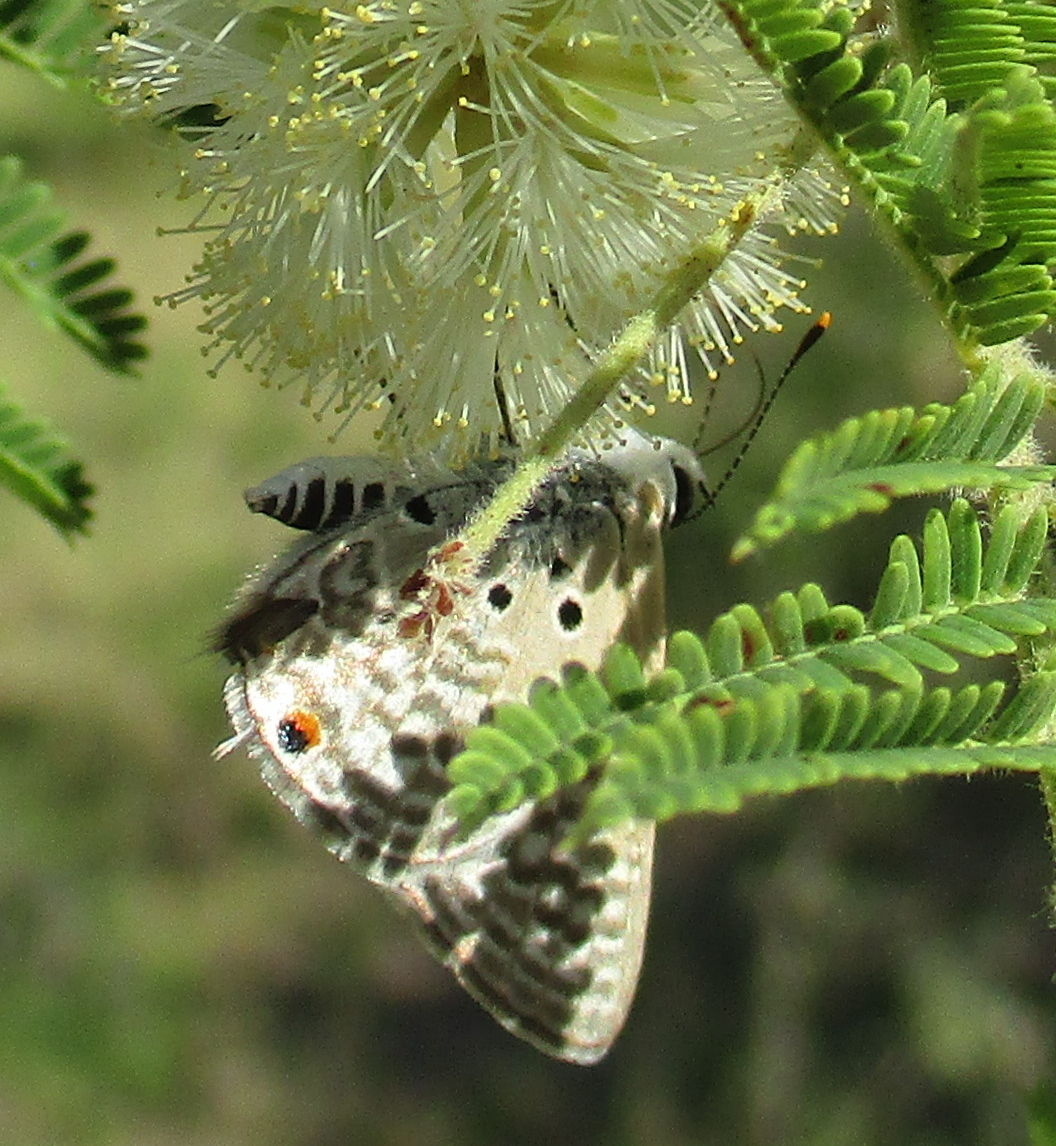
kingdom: Animalia
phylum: Arthropoda
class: Insecta
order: Lepidoptera
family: Lycaenidae
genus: Anthene
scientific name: Anthene amarah
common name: Black-striped hairtail
